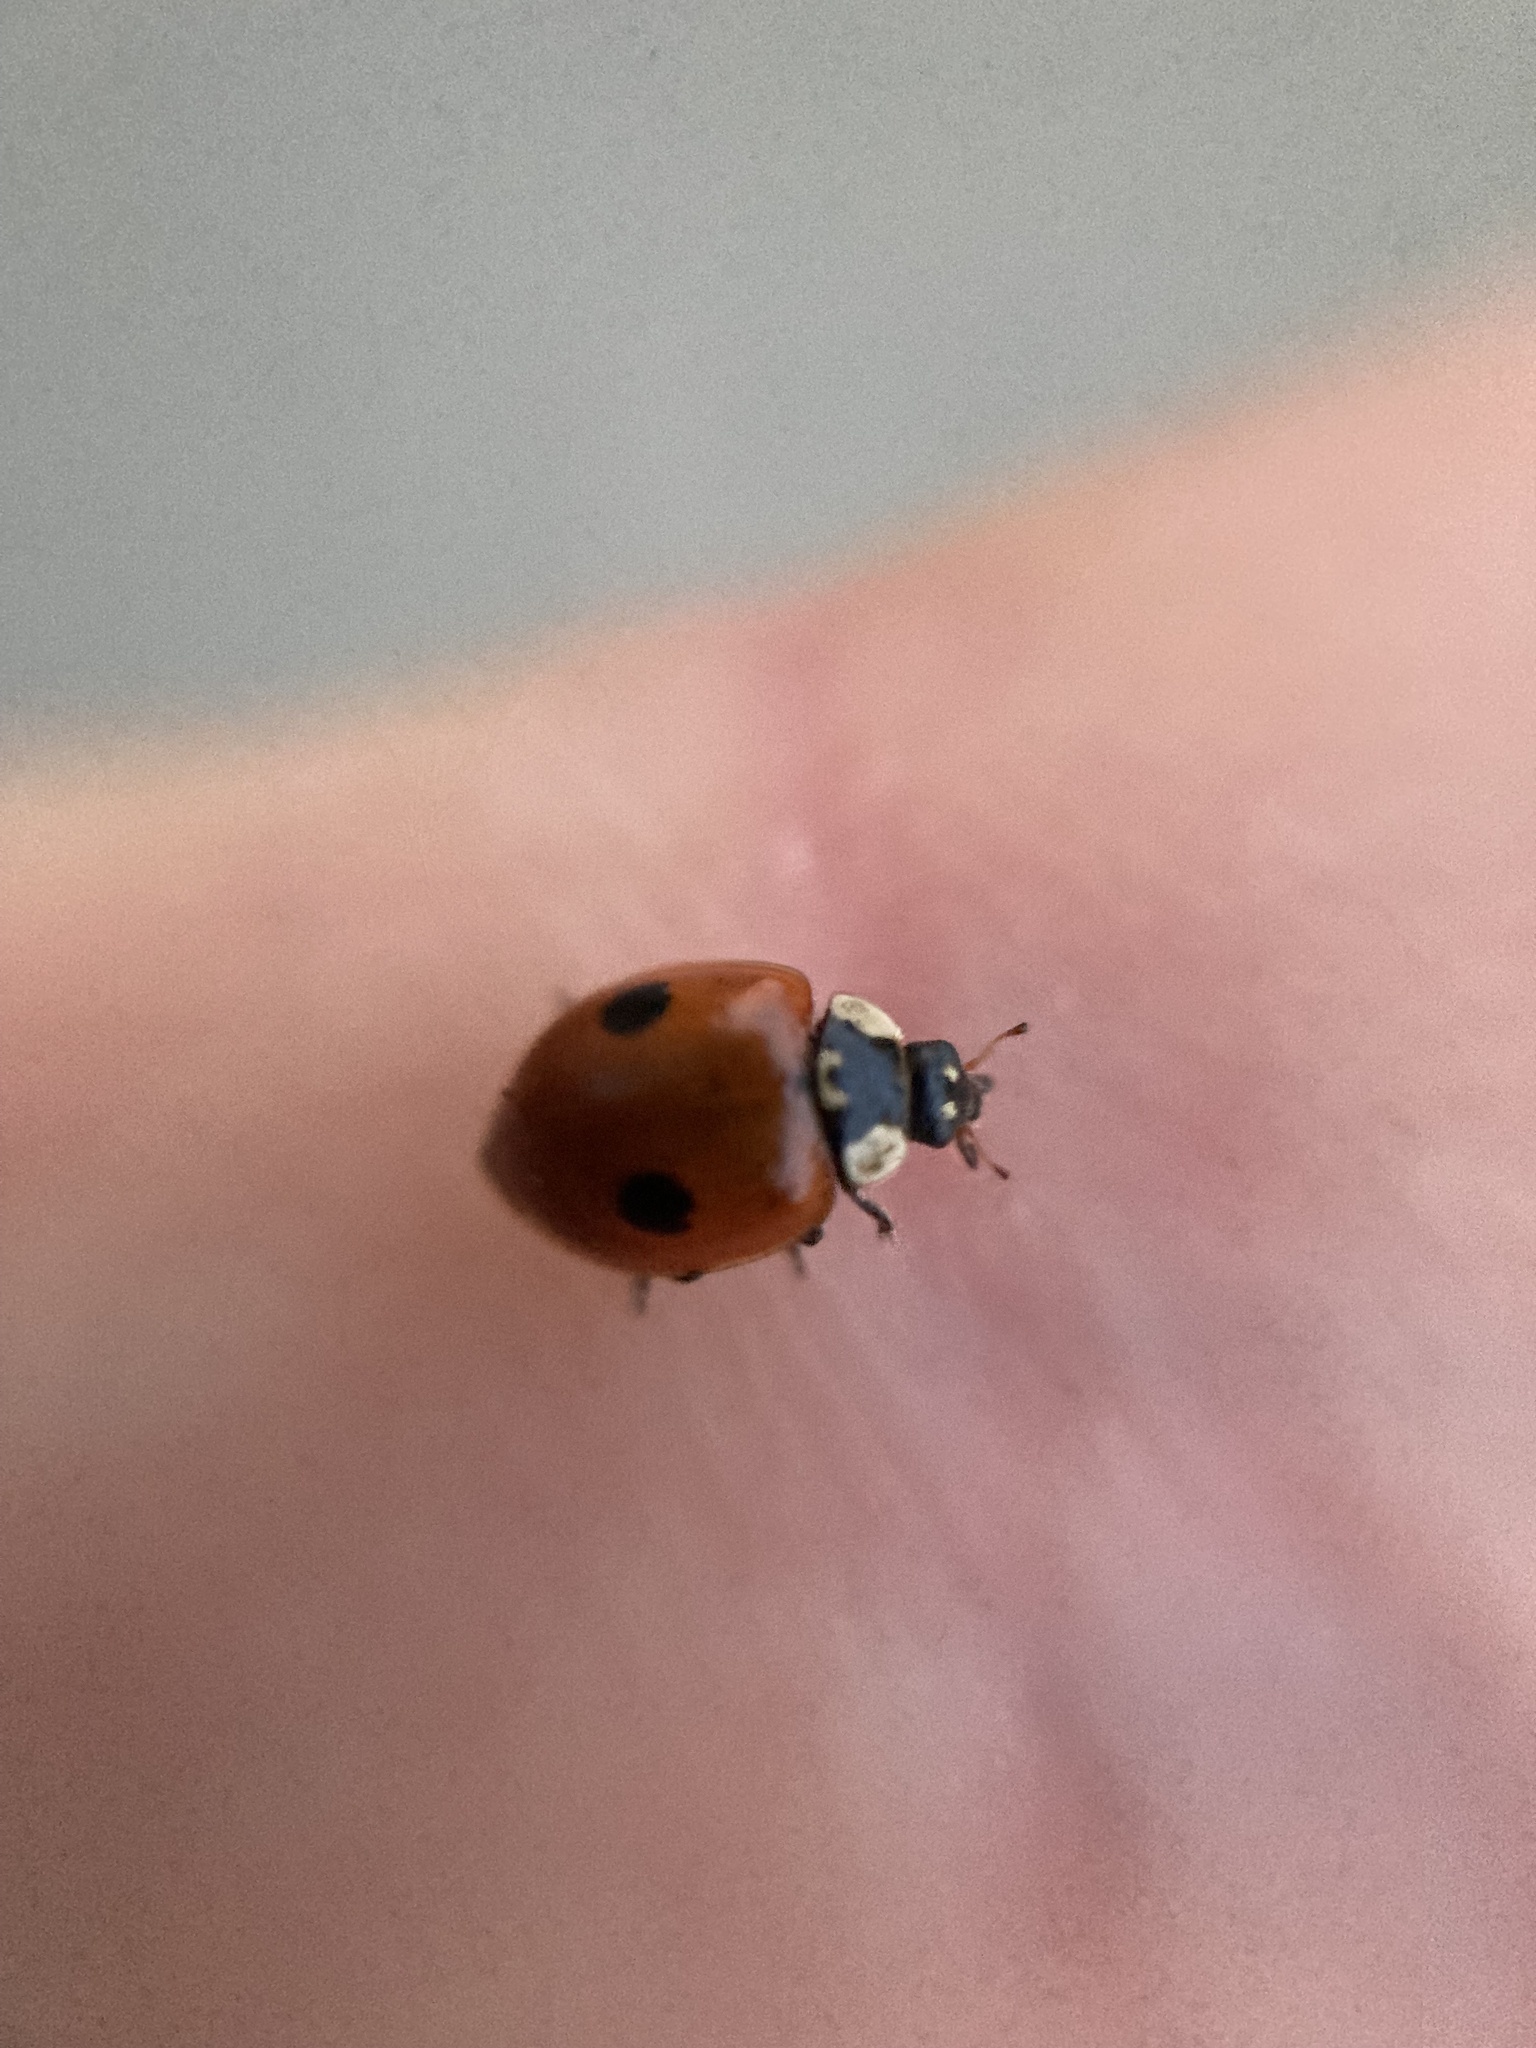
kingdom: Animalia
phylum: Arthropoda
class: Insecta
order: Coleoptera
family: Coccinellidae
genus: Adalia
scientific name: Adalia bipunctata
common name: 2-spot ladybird
